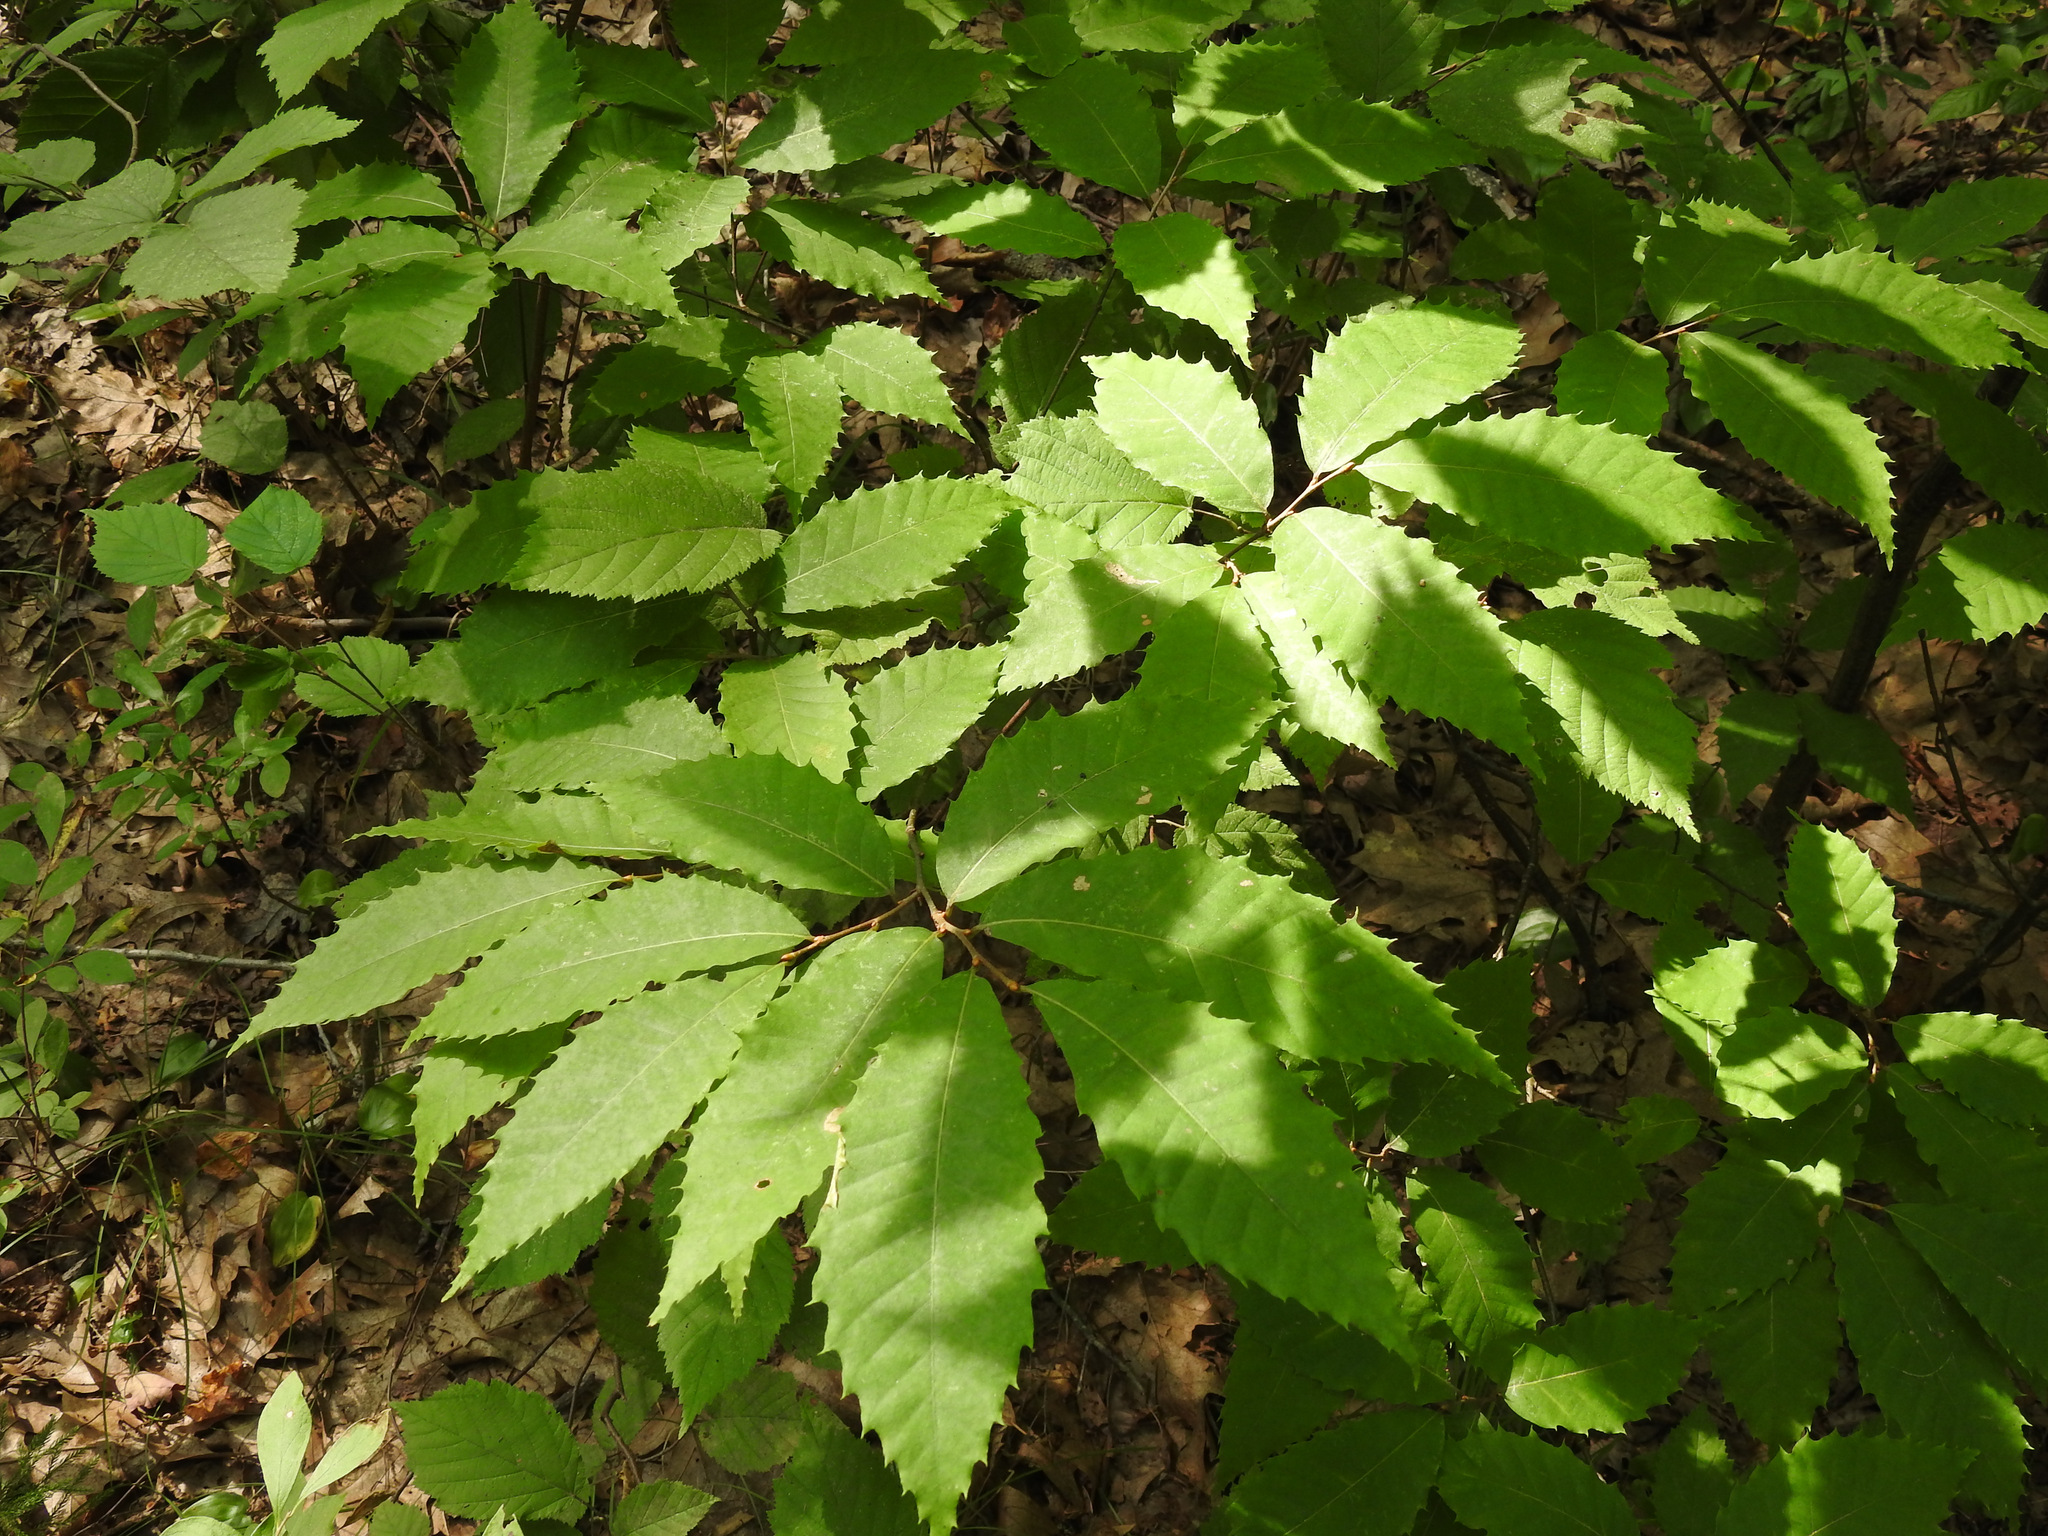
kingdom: Plantae
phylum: Tracheophyta
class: Magnoliopsida
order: Fagales
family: Fagaceae
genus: Castanea
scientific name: Castanea dentata
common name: American chestnut
